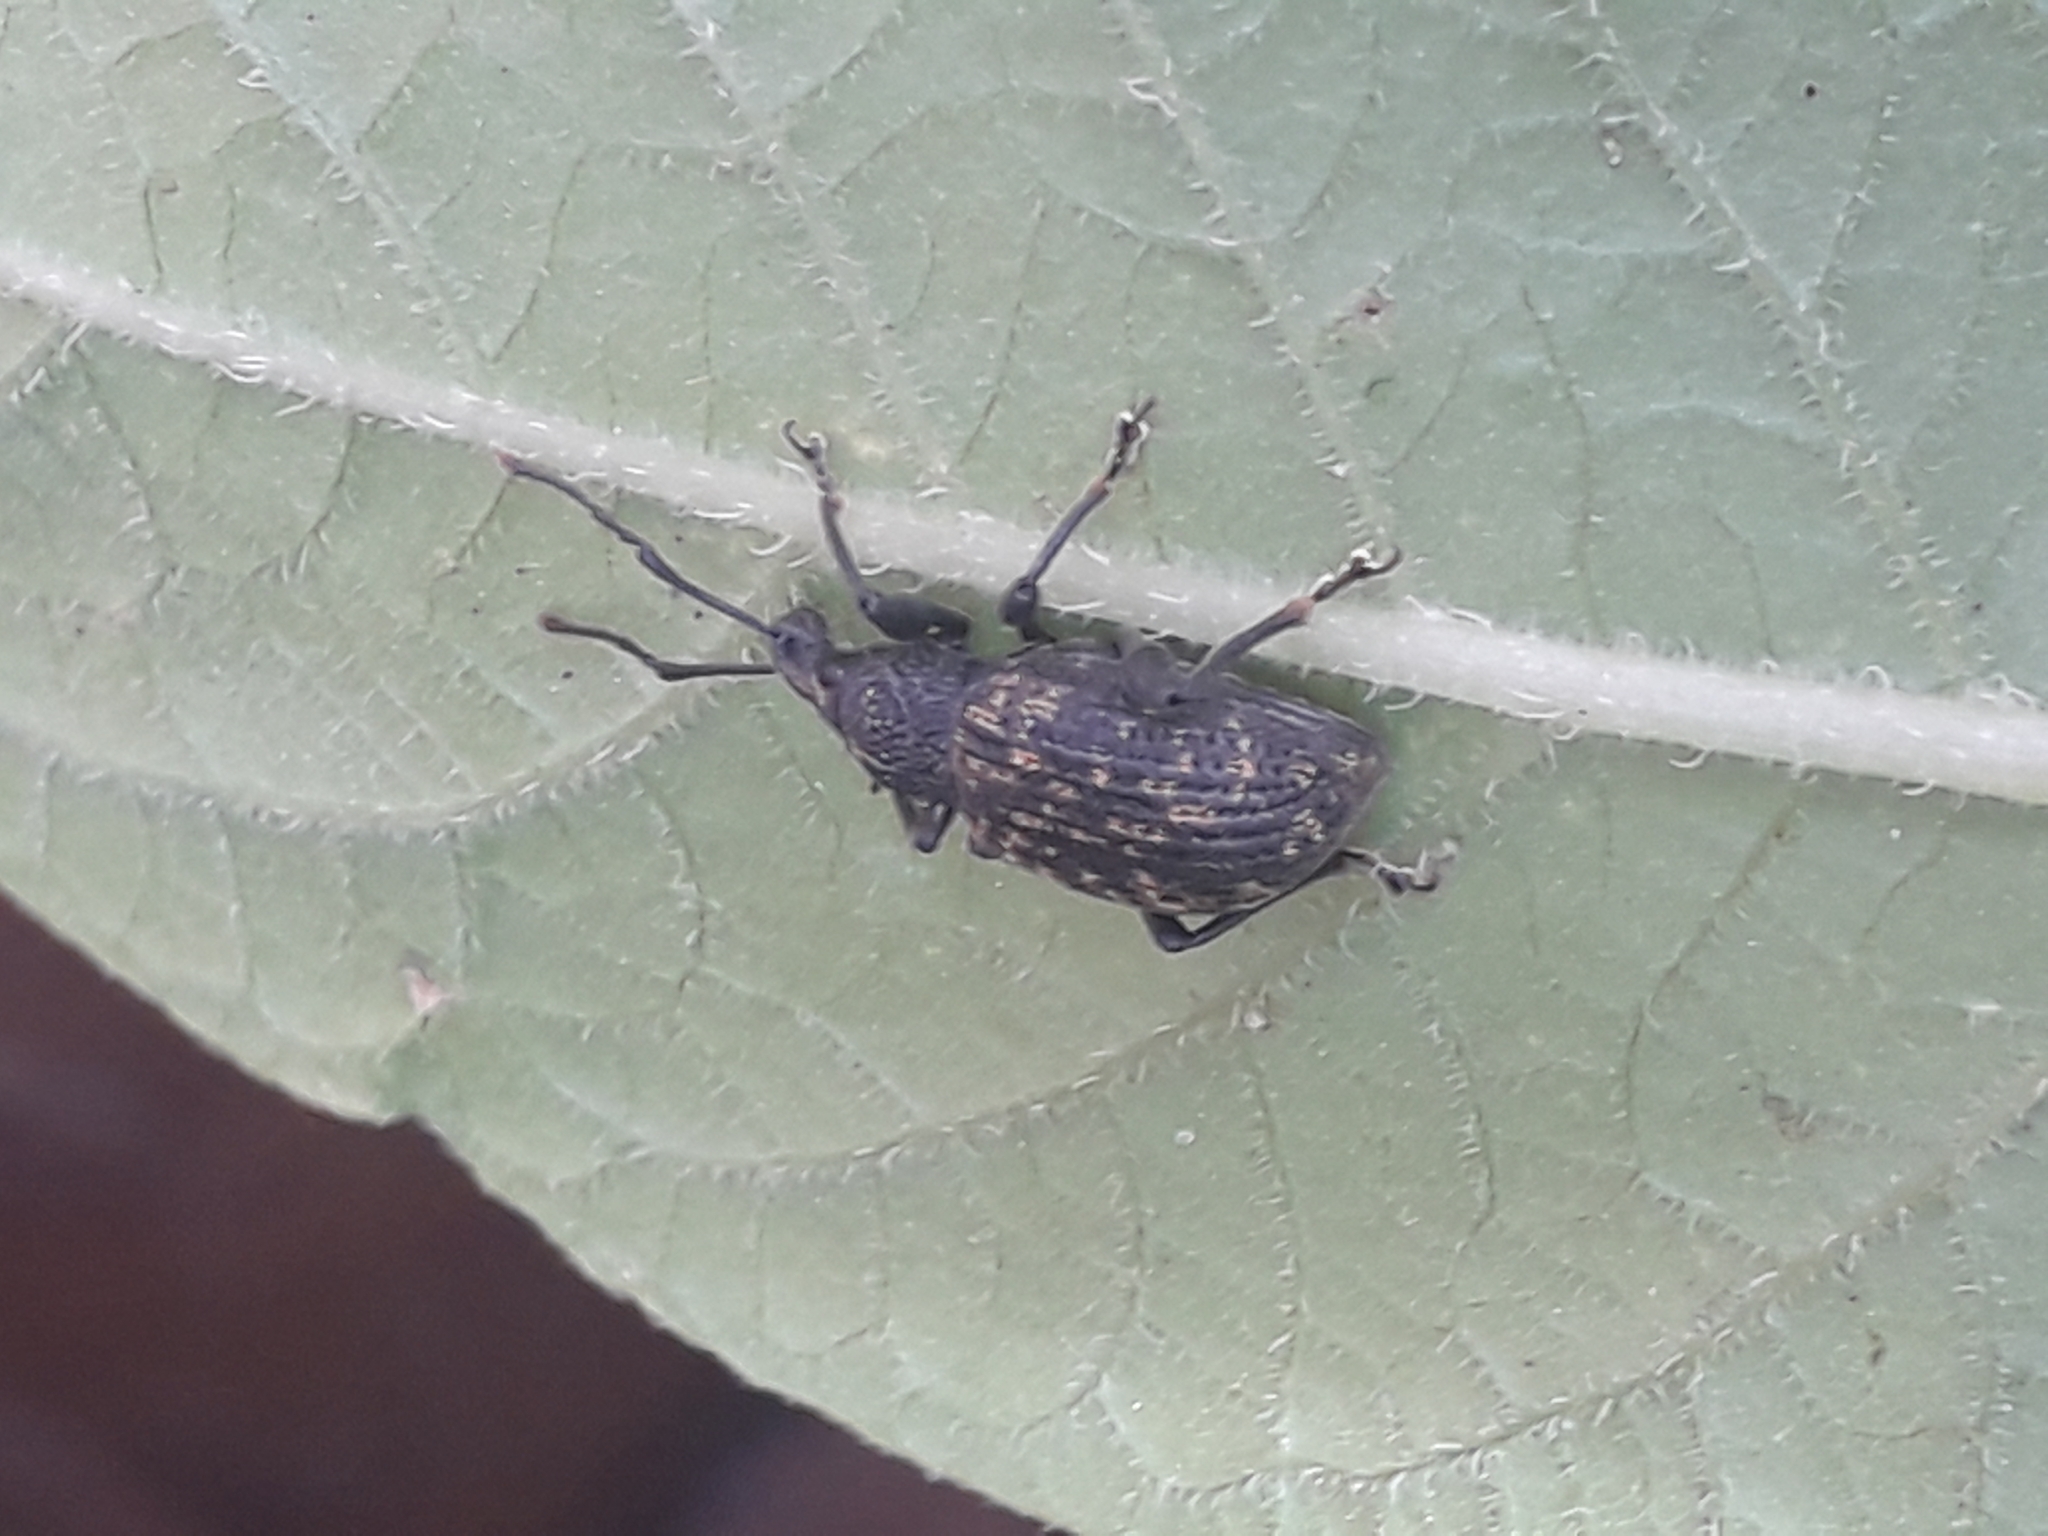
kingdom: Animalia
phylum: Arthropoda
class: Insecta
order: Coleoptera
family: Curculionidae
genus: Otiorhynchus
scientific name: Otiorhynchus sulcatus
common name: Black vine weevil
